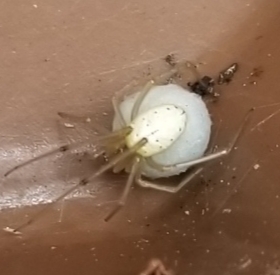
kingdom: Animalia
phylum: Arthropoda
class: Arachnida
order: Araneae
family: Theridiidae
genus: Enoplognatha
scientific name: Enoplognatha ovata
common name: Common candy-striped spider
